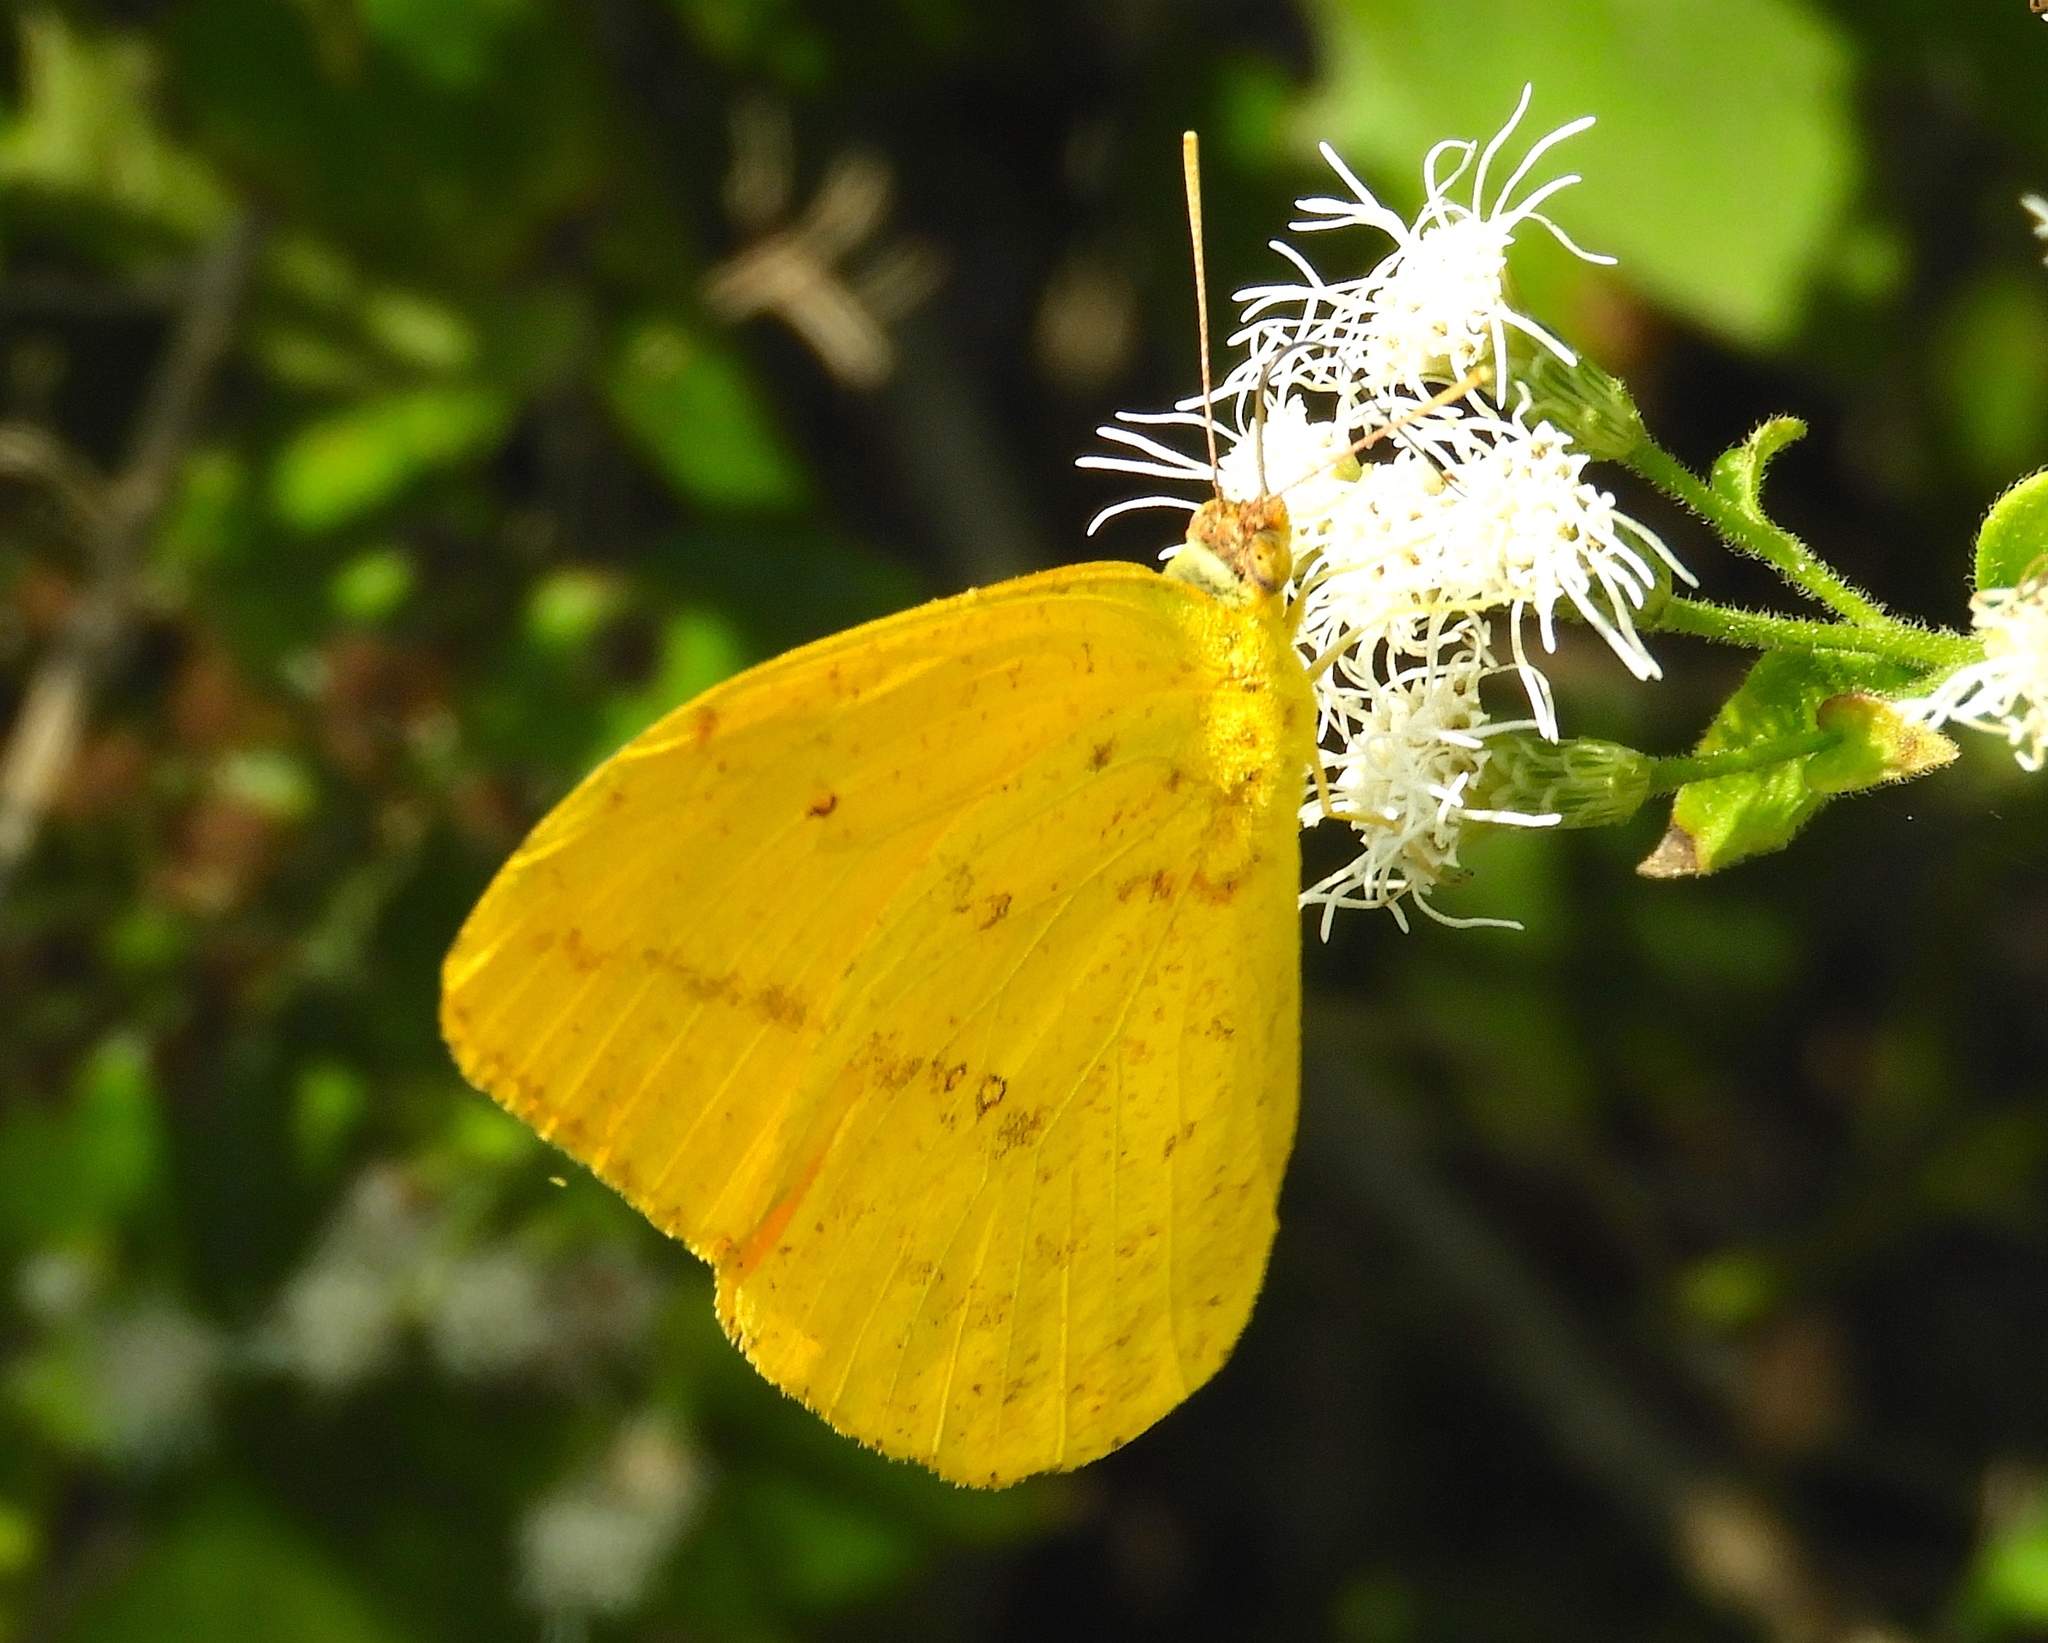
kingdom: Animalia
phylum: Arthropoda
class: Insecta
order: Lepidoptera
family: Pieridae
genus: Phoebis
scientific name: Phoebis agarithe
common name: Large orange sulphur
